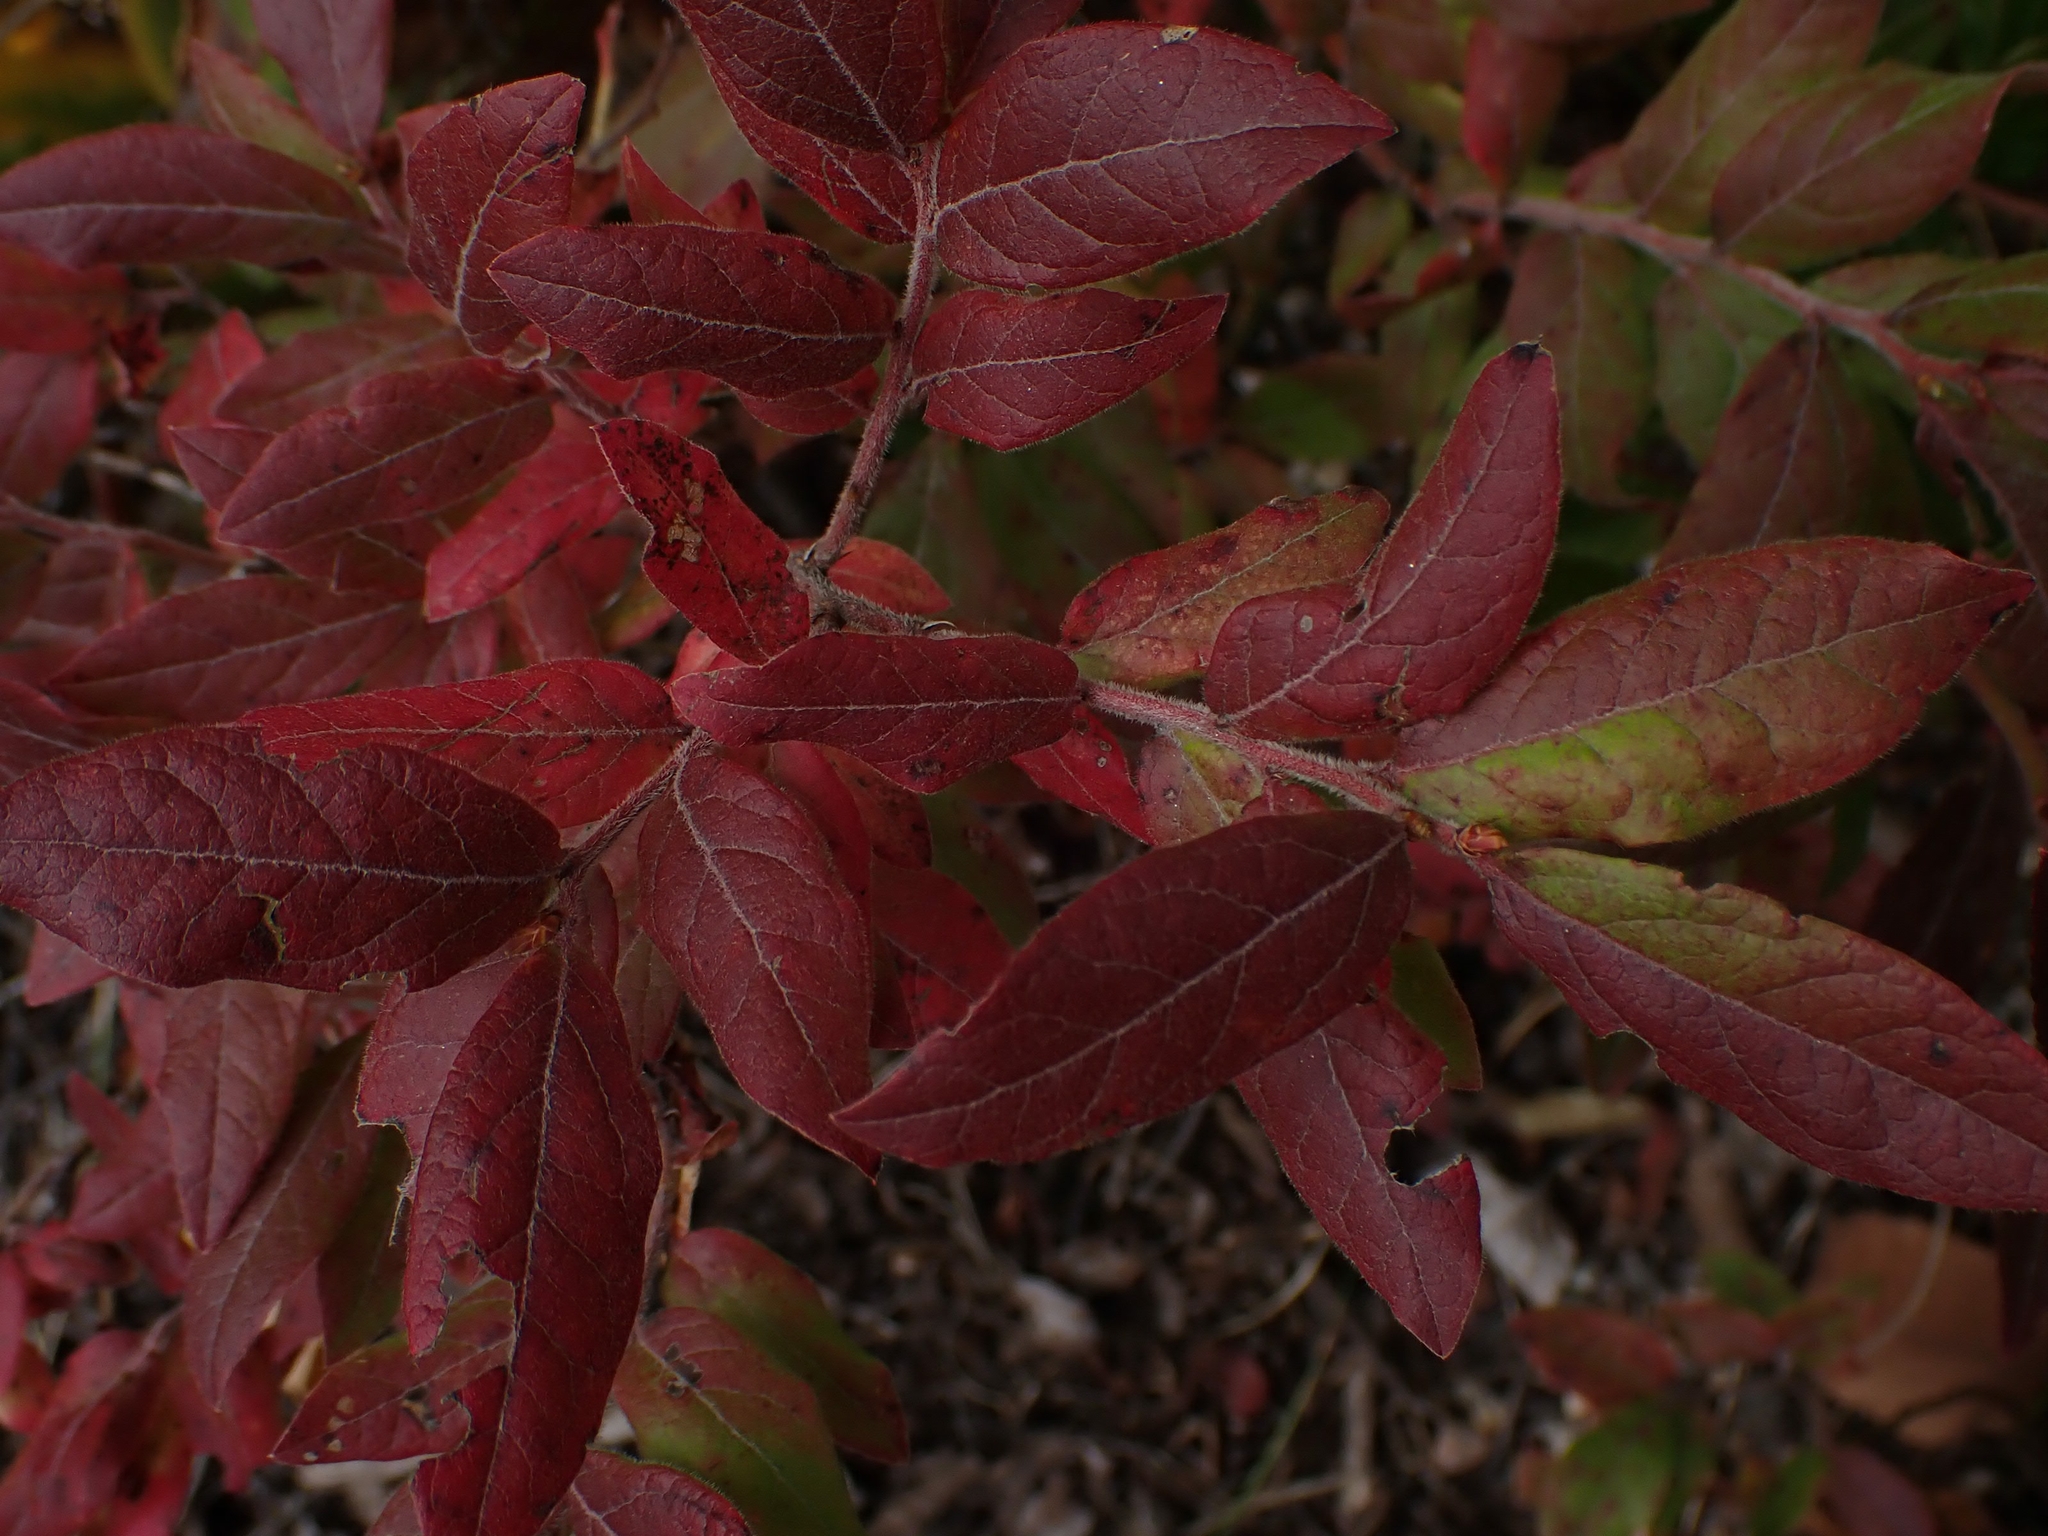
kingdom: Plantae
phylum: Tracheophyta
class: Magnoliopsida
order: Ericales
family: Ericaceae
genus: Vaccinium
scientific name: Vaccinium myrtilloides
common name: Canada blueberry
